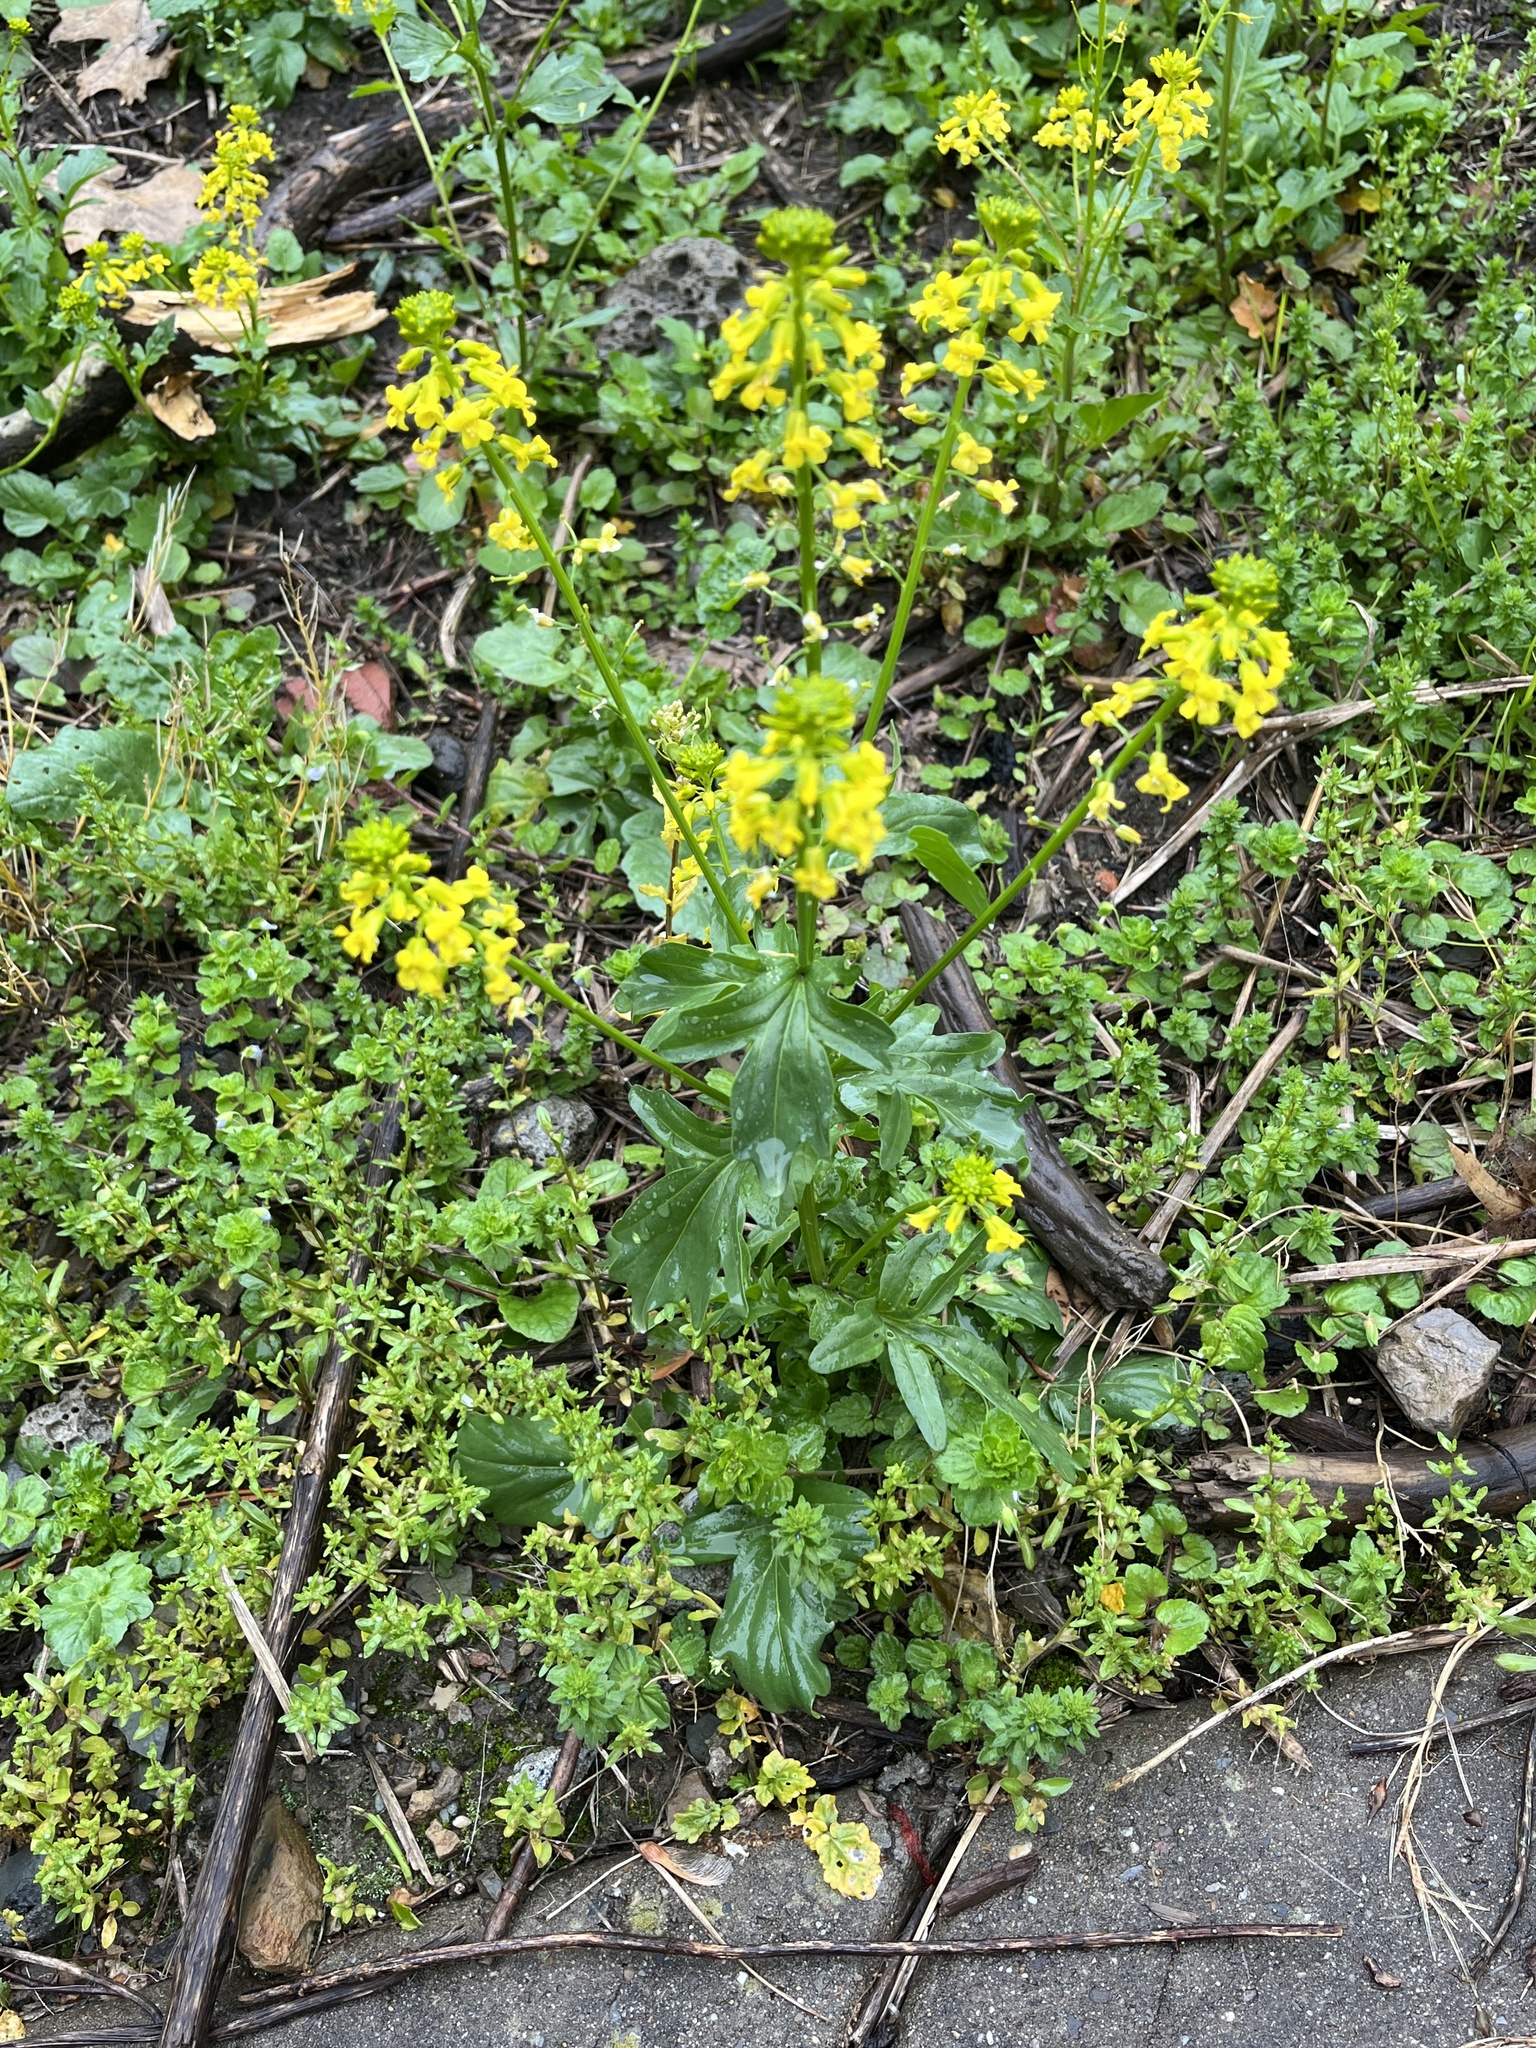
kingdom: Plantae
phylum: Tracheophyta
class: Magnoliopsida
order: Brassicales
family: Brassicaceae
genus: Barbarea
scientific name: Barbarea vulgaris
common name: Cressy-greens
